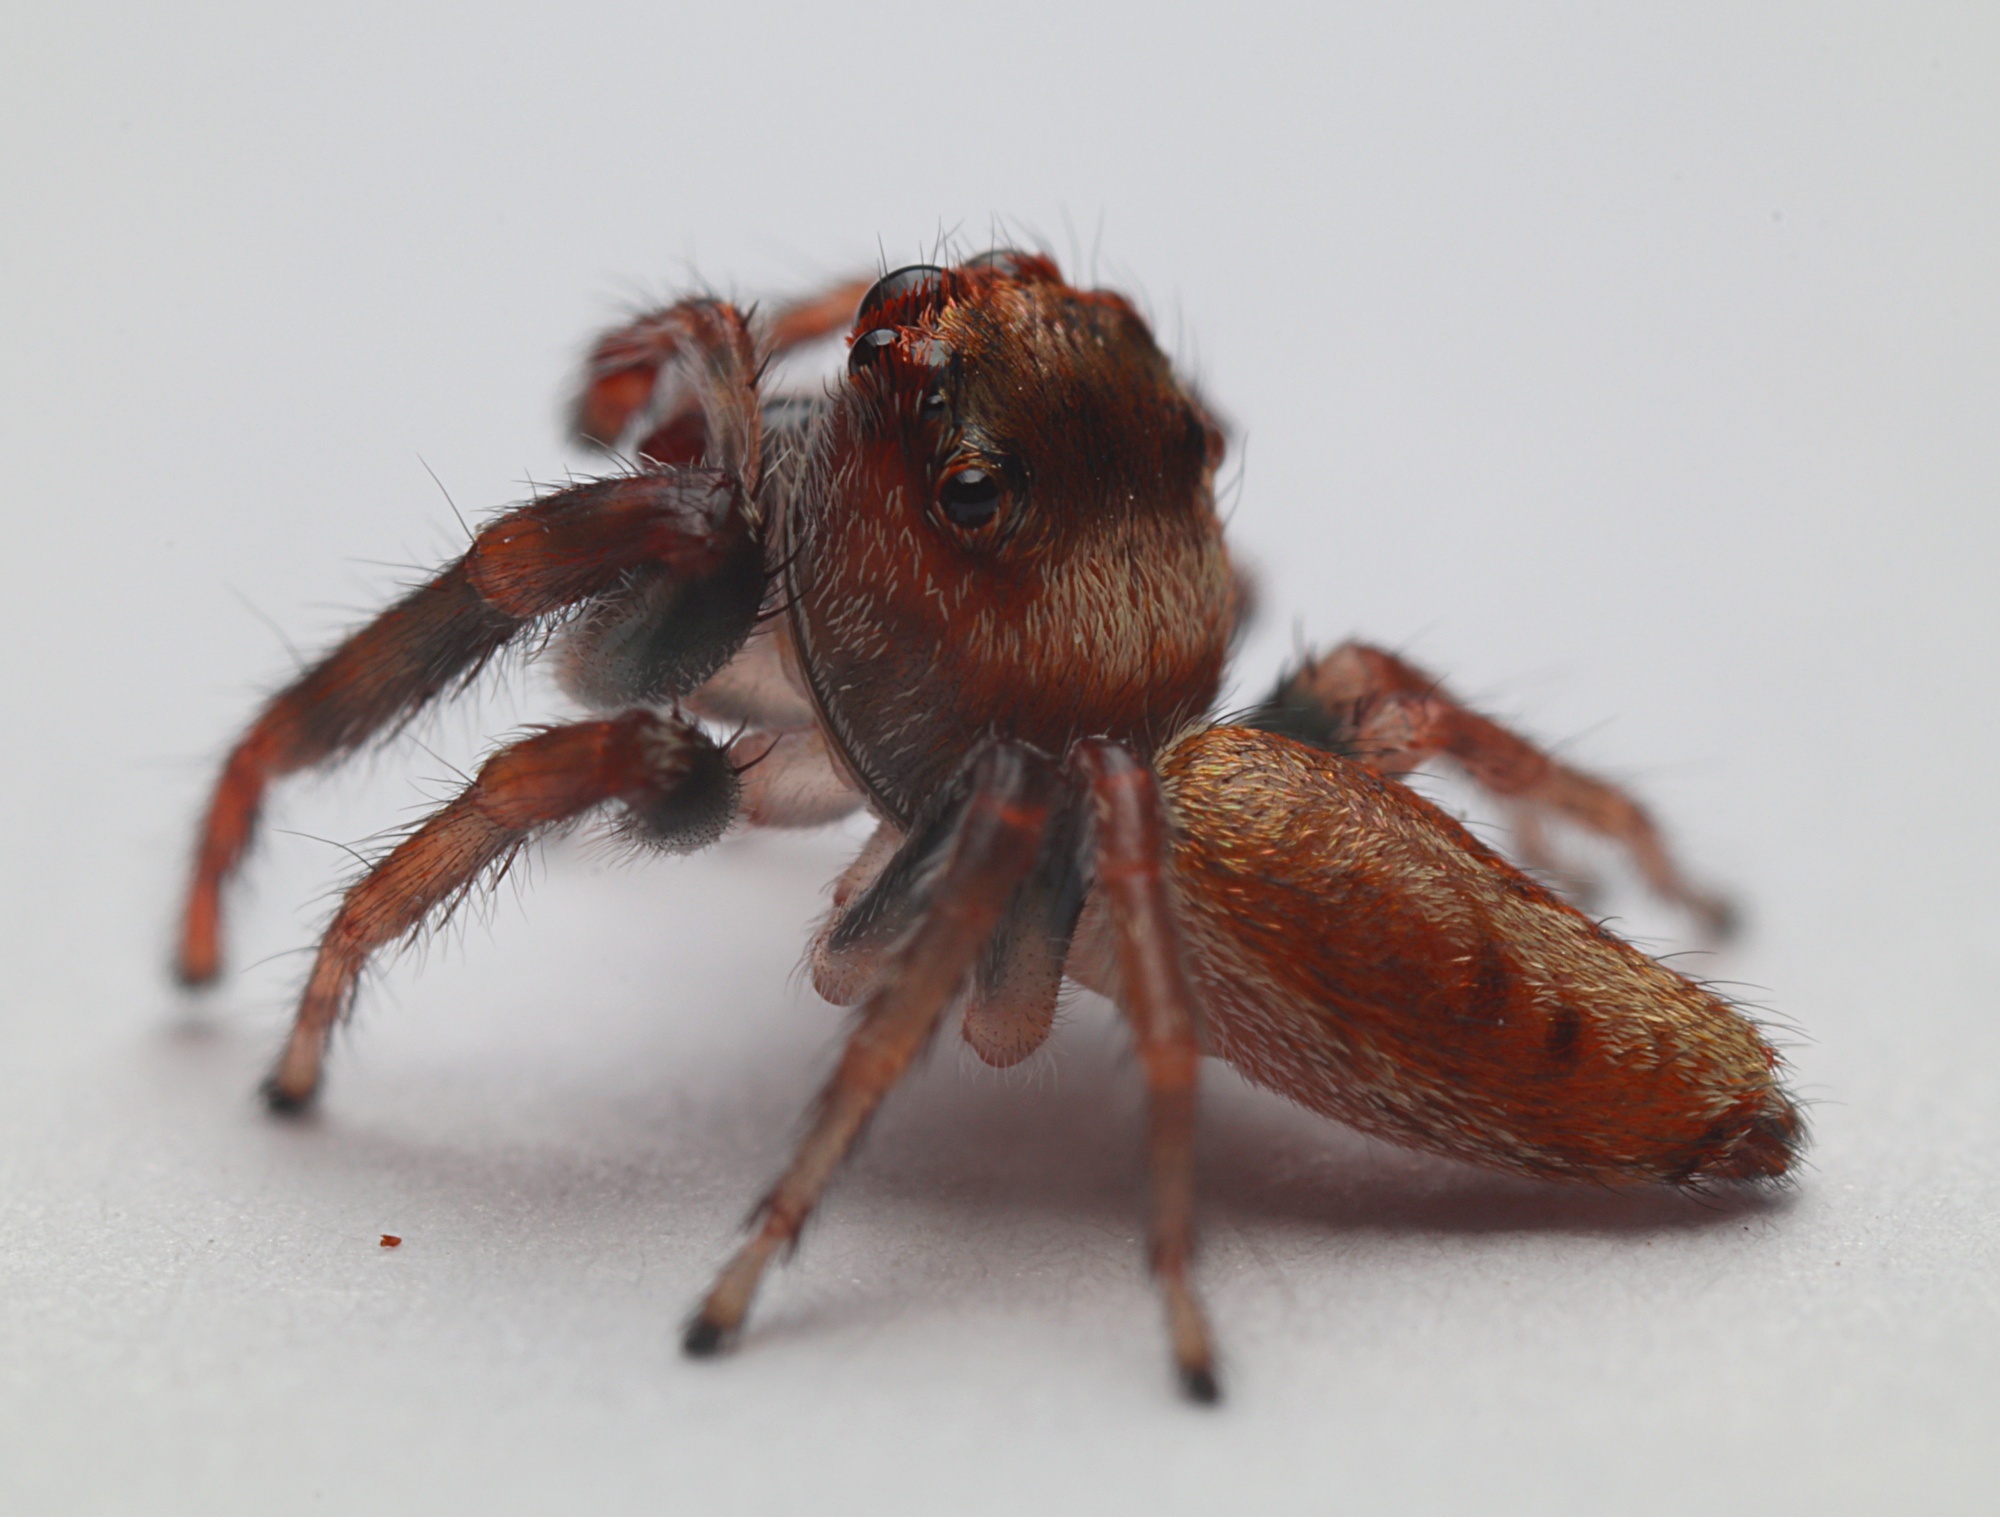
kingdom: Animalia
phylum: Arthropoda
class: Arachnida
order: Araneae
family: Salticidae
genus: Opisthoncus
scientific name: Opisthoncus polyphemus
